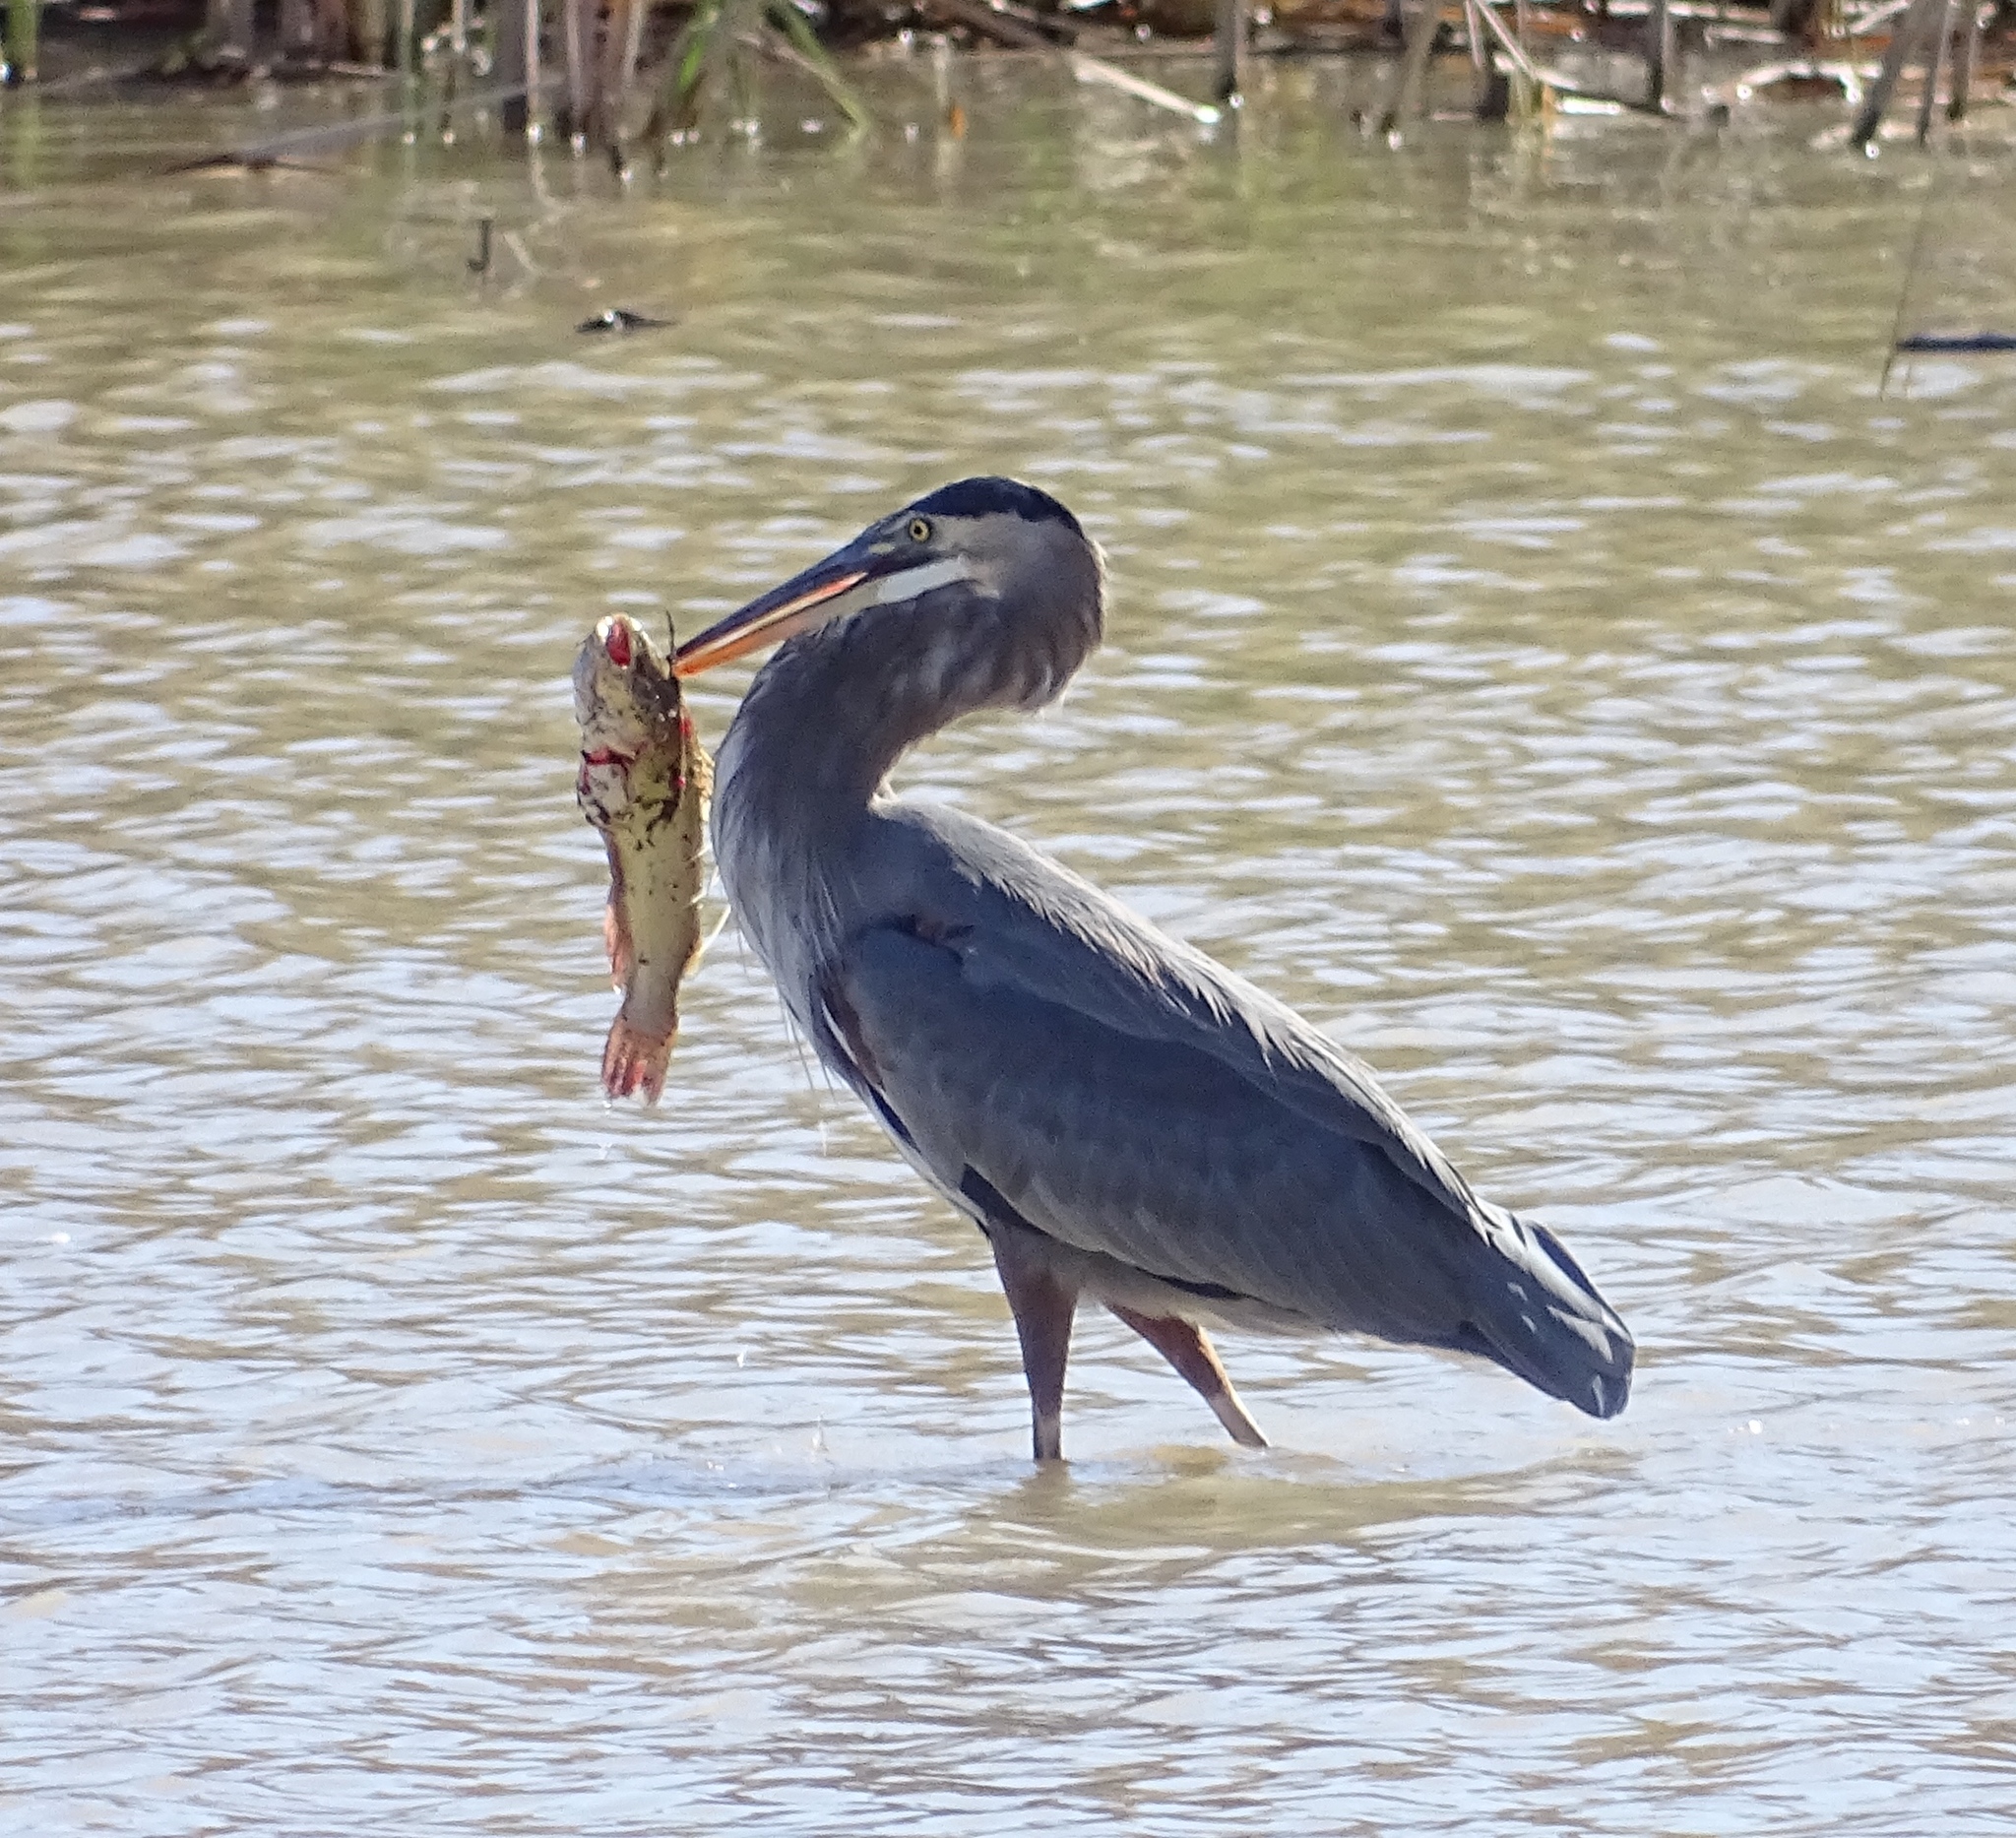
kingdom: Animalia
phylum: Chordata
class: Aves
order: Pelecaniformes
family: Ardeidae
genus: Ardea
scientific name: Ardea herodias
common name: Great blue heron
